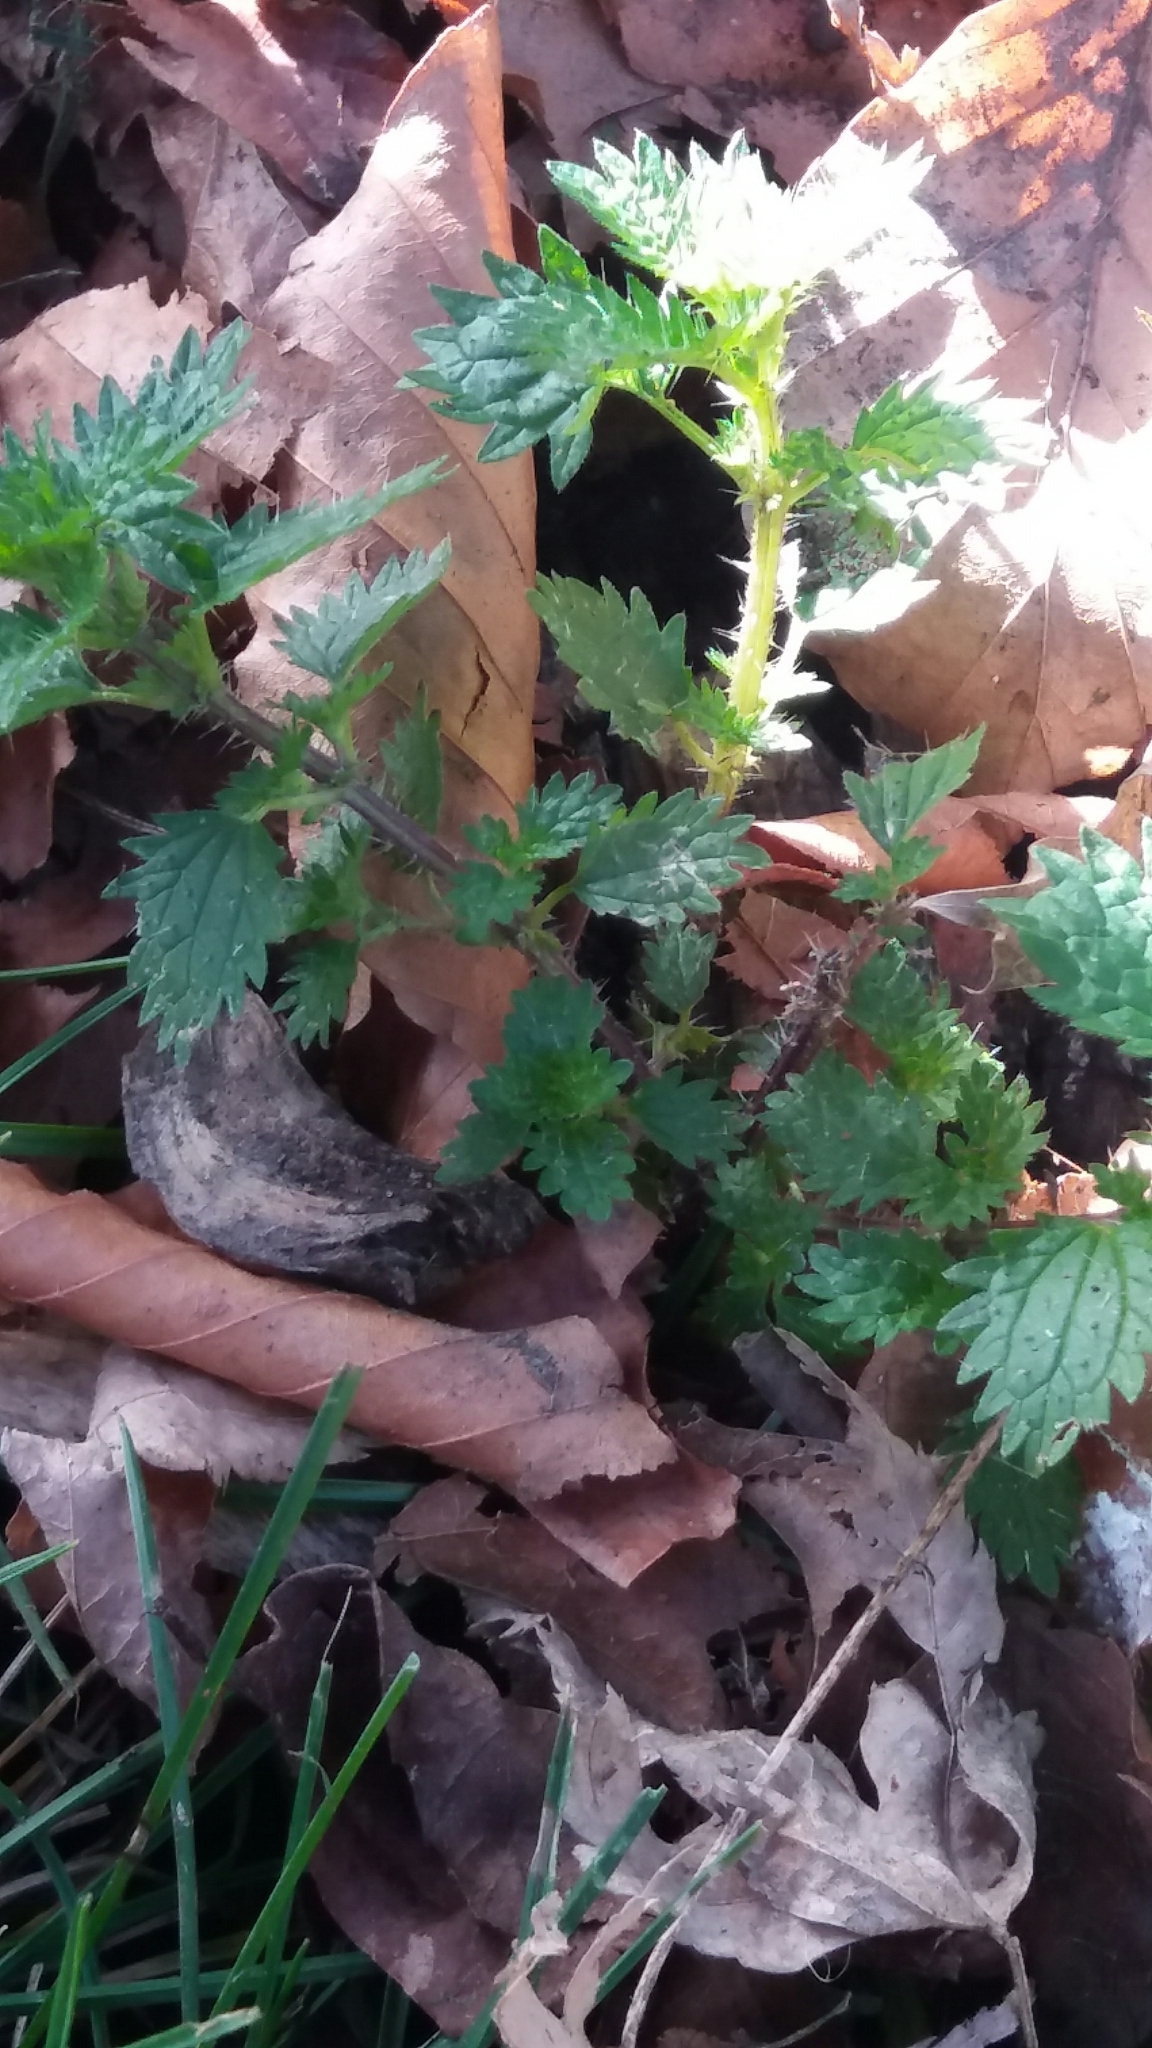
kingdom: Plantae
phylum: Tracheophyta
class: Magnoliopsida
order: Rosales
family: Urticaceae
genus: Urtica
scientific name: Urtica urens
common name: Dwarf nettle
